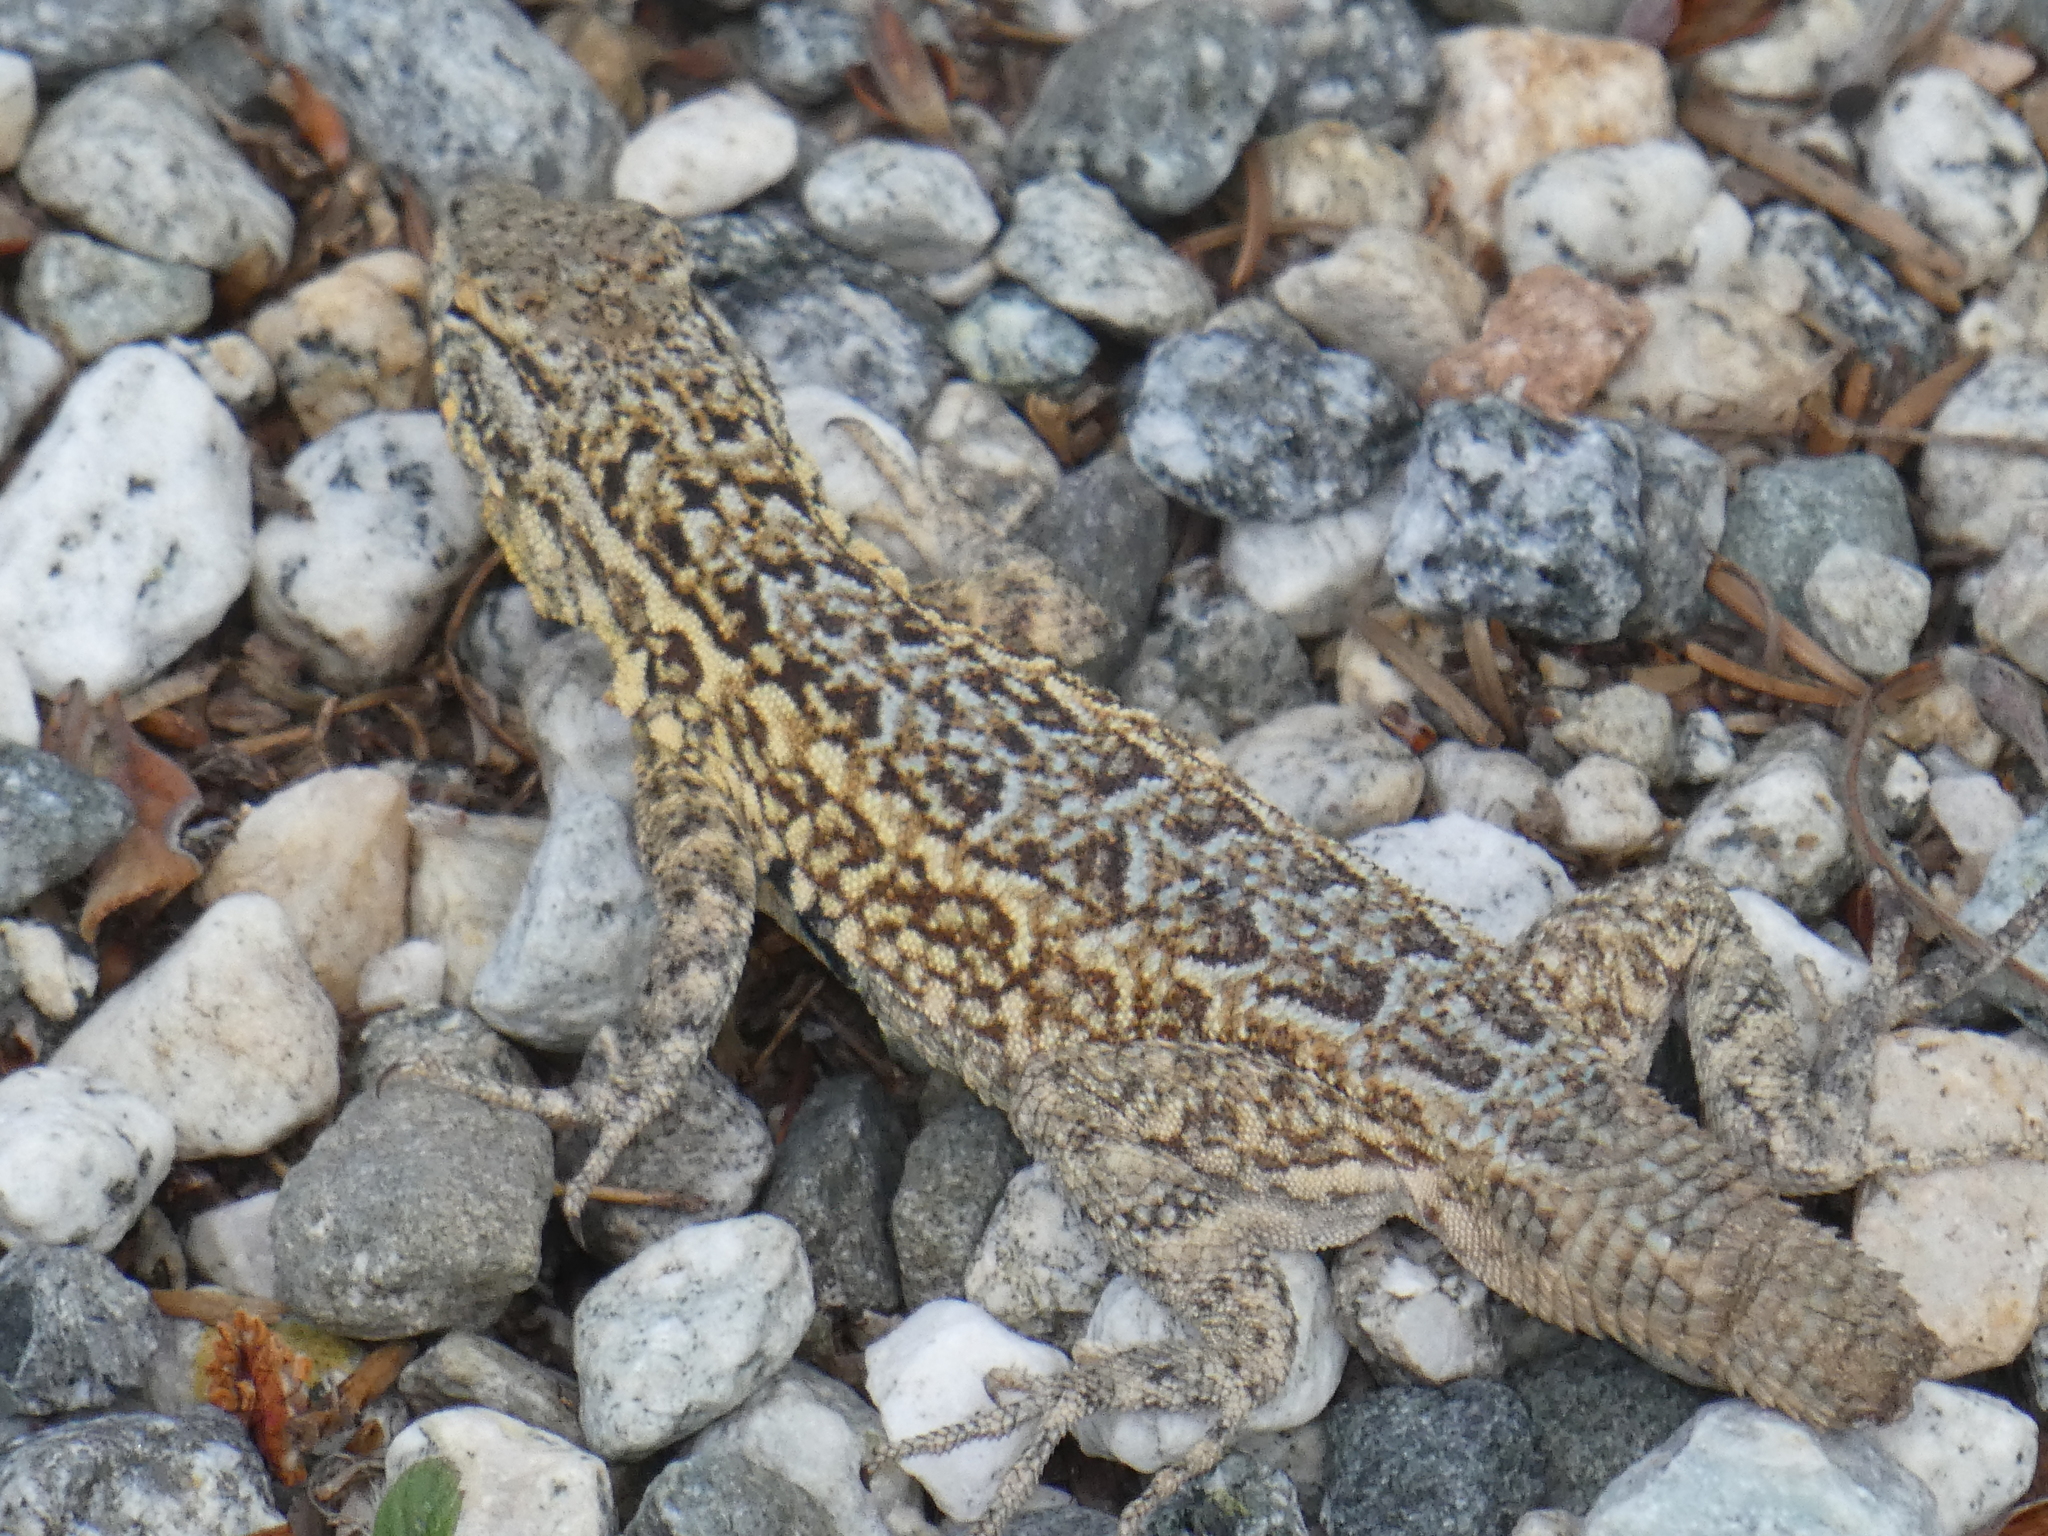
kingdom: Animalia
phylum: Chordata
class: Squamata
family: Phrynosomatidae
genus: Uta
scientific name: Uta stansburiana
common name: Side-blotched lizard
